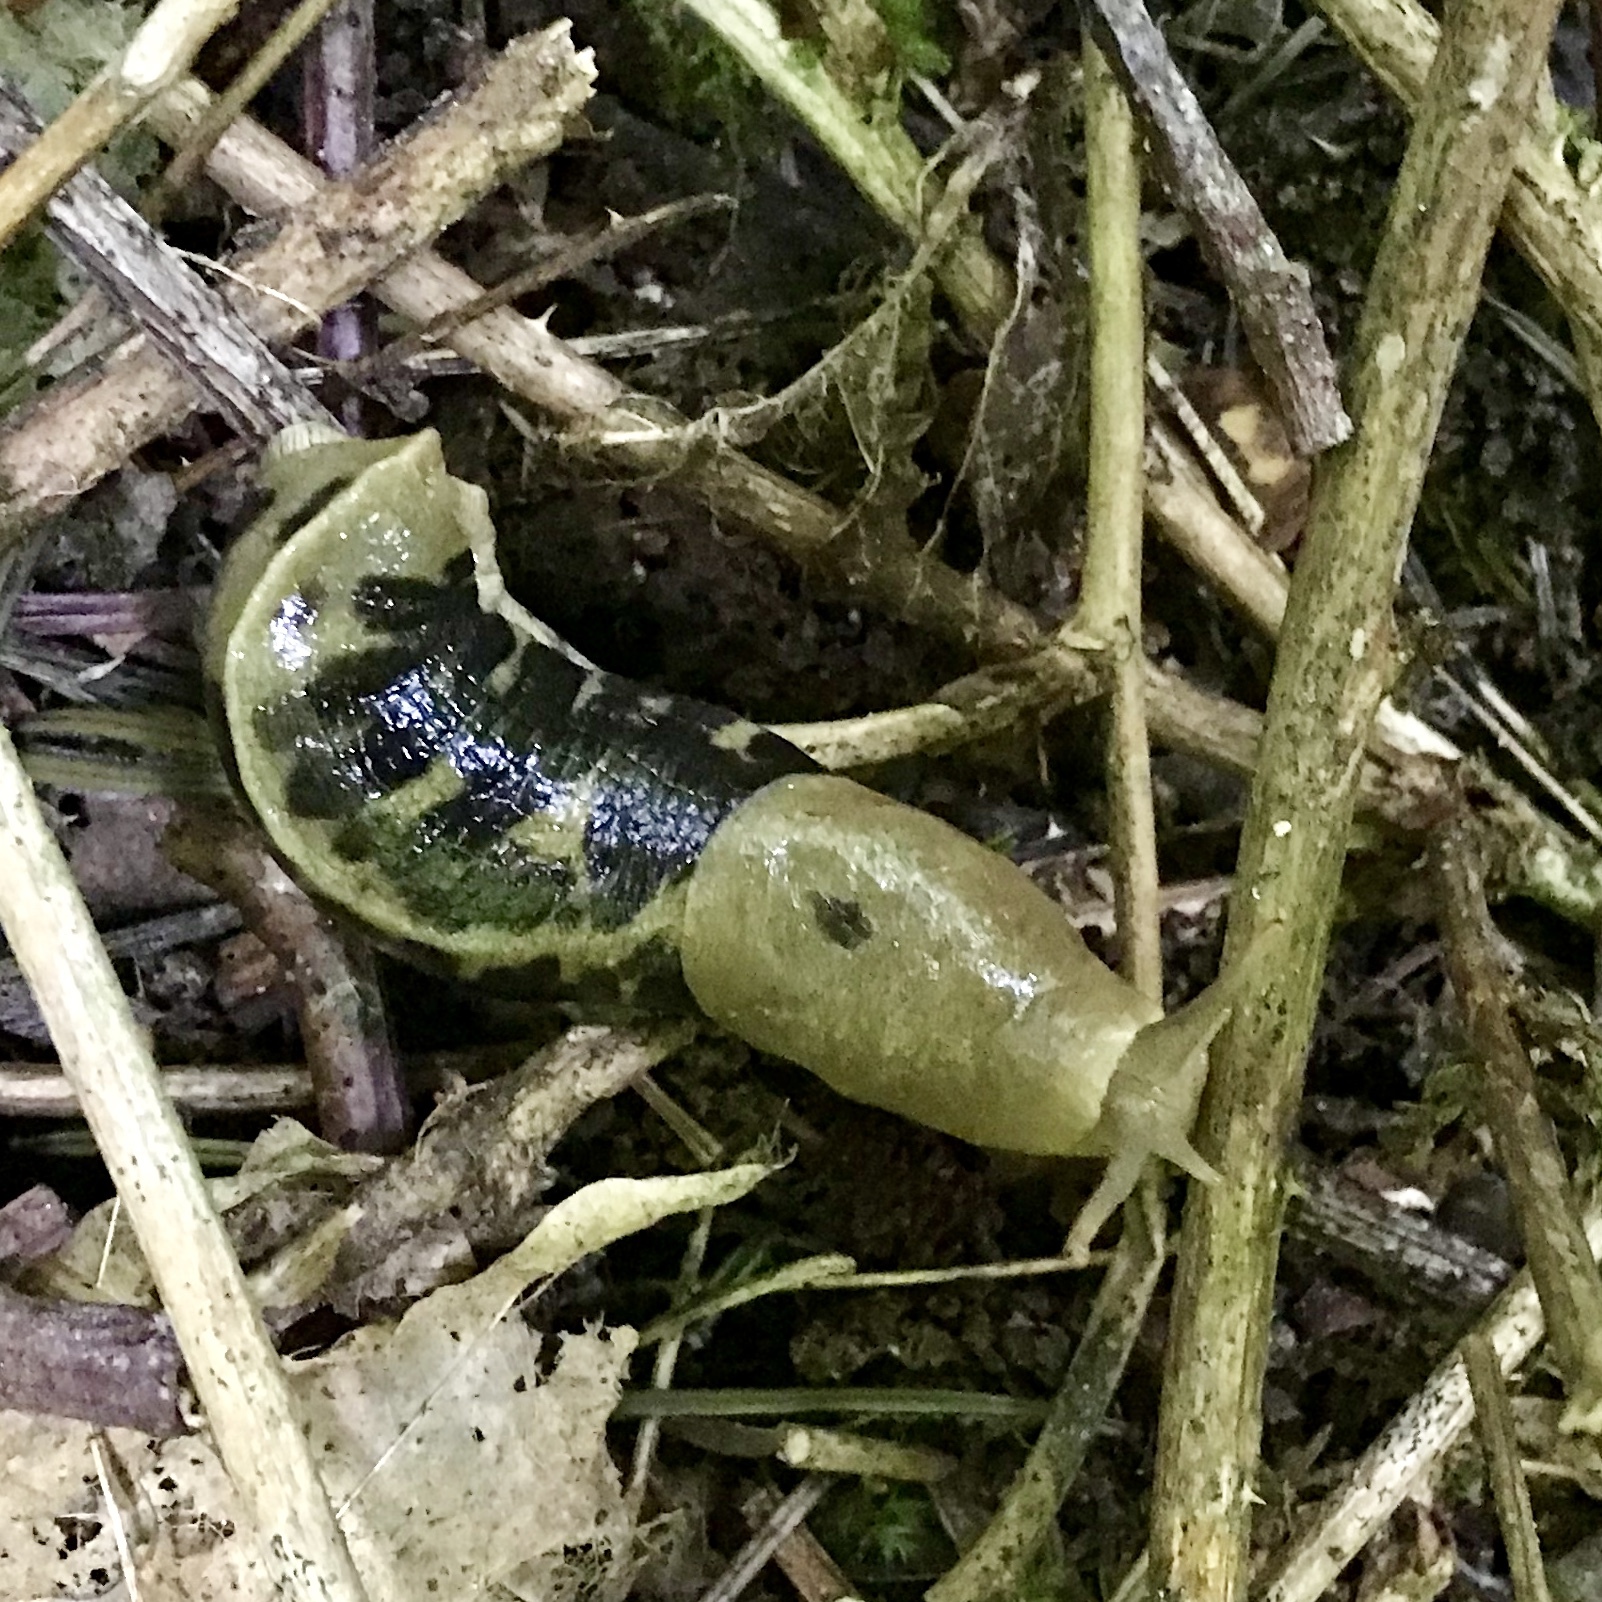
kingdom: Animalia
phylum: Mollusca
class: Gastropoda
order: Stylommatophora
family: Ariolimacidae
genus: Ariolimax
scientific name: Ariolimax columbianus
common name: Pacific banana slug
